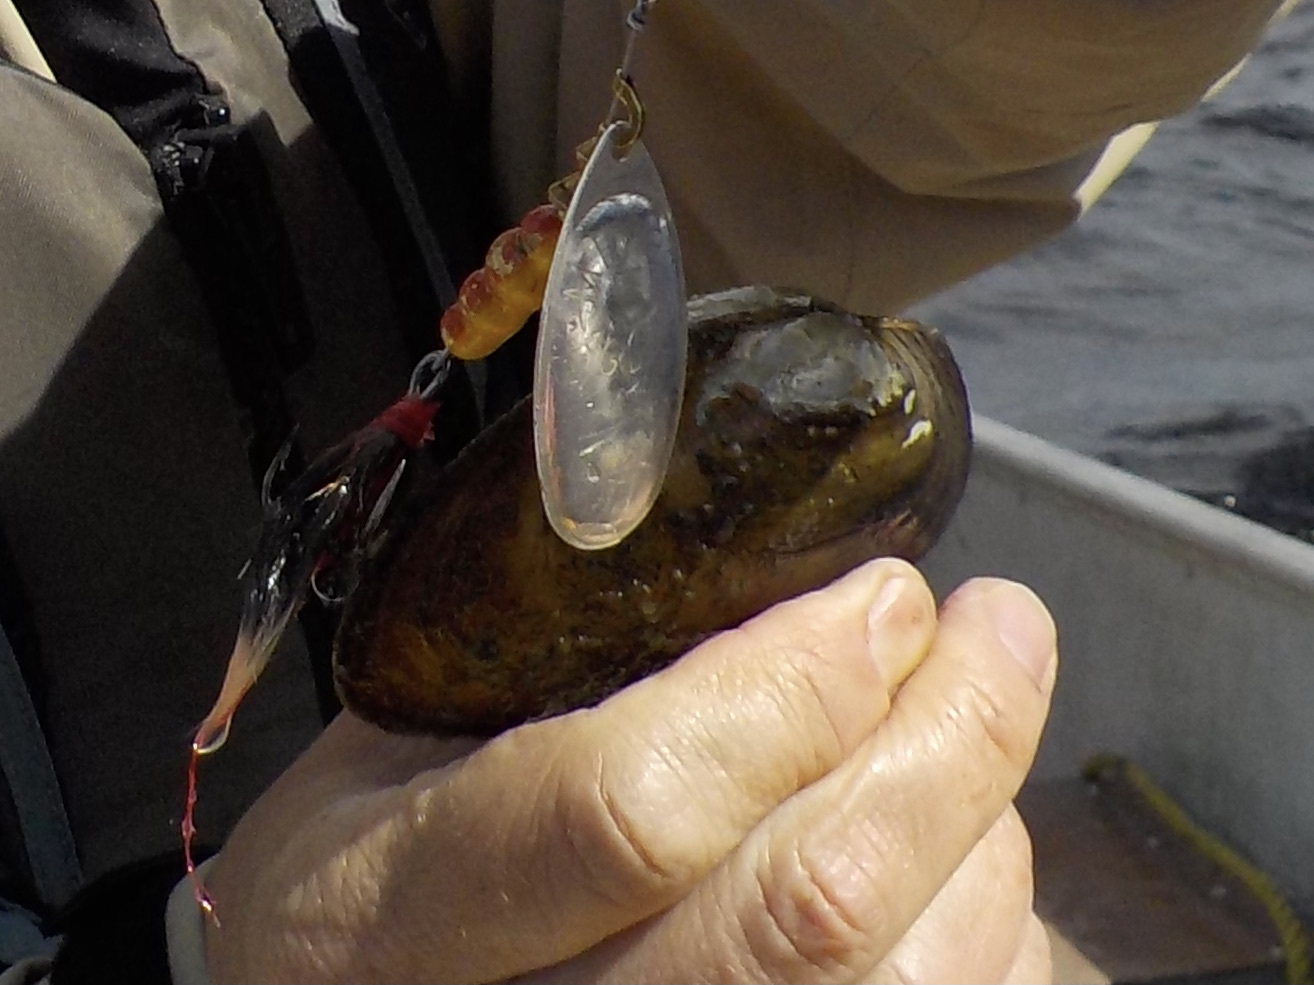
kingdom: Animalia
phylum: Mollusca
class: Bivalvia
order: Unionida
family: Unionidae
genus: Pyganodon
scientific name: Pyganodon grandis
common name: Giant floater
